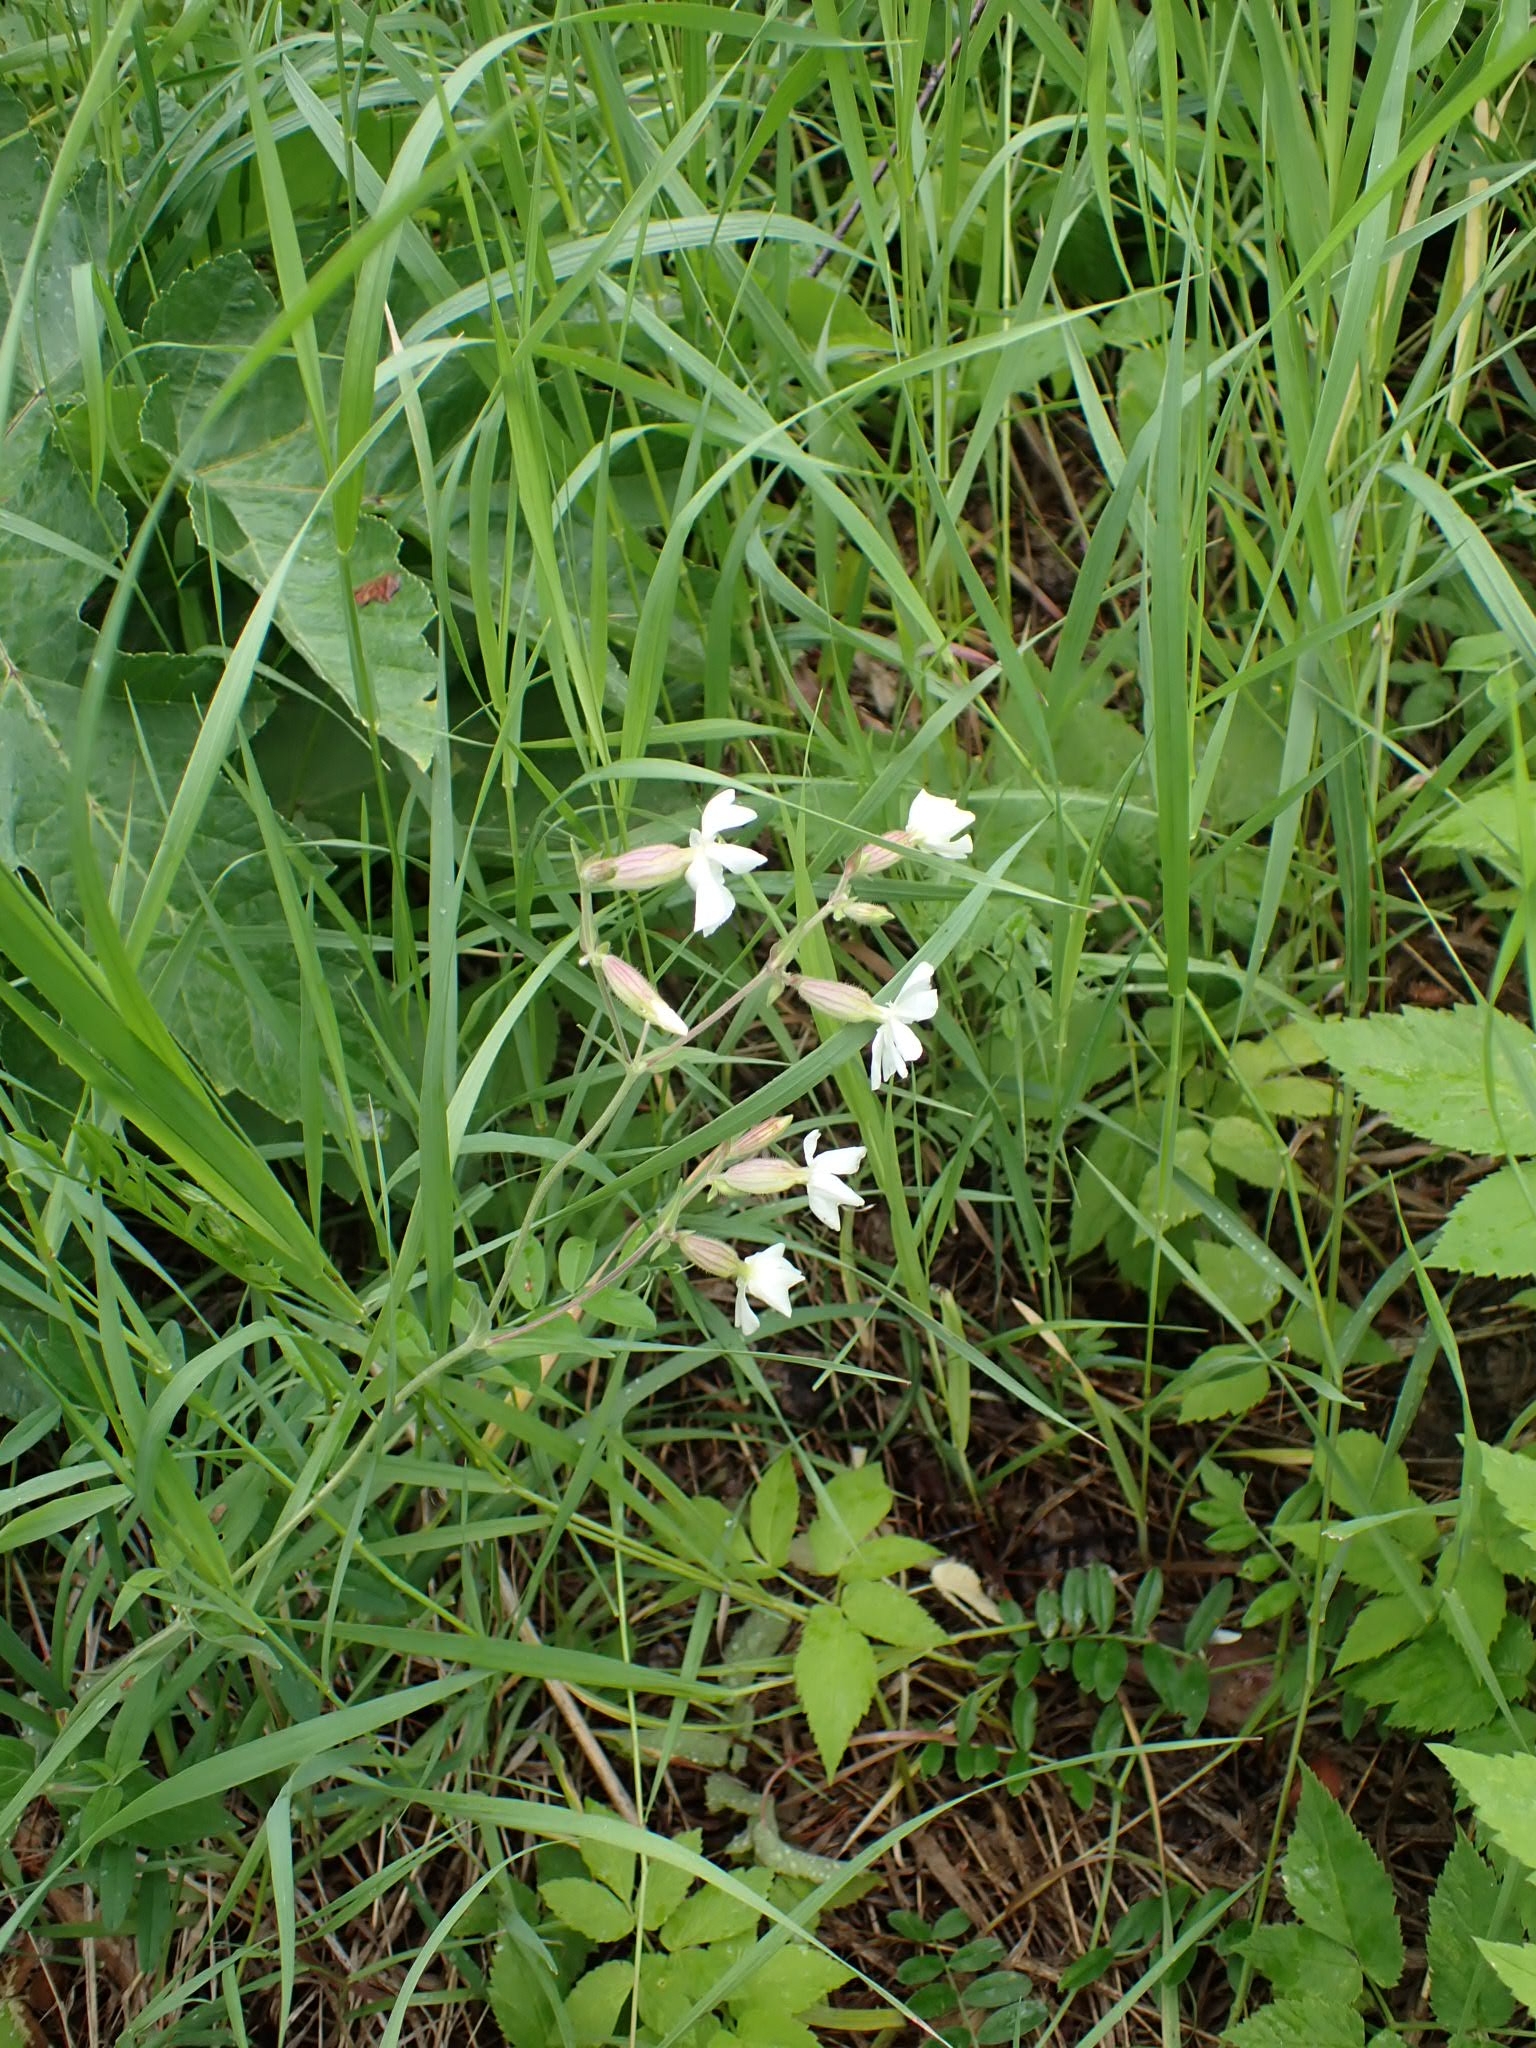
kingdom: Plantae
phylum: Tracheophyta
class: Magnoliopsida
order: Caryophyllales
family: Caryophyllaceae
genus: Silene
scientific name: Silene latifolia
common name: White campion
